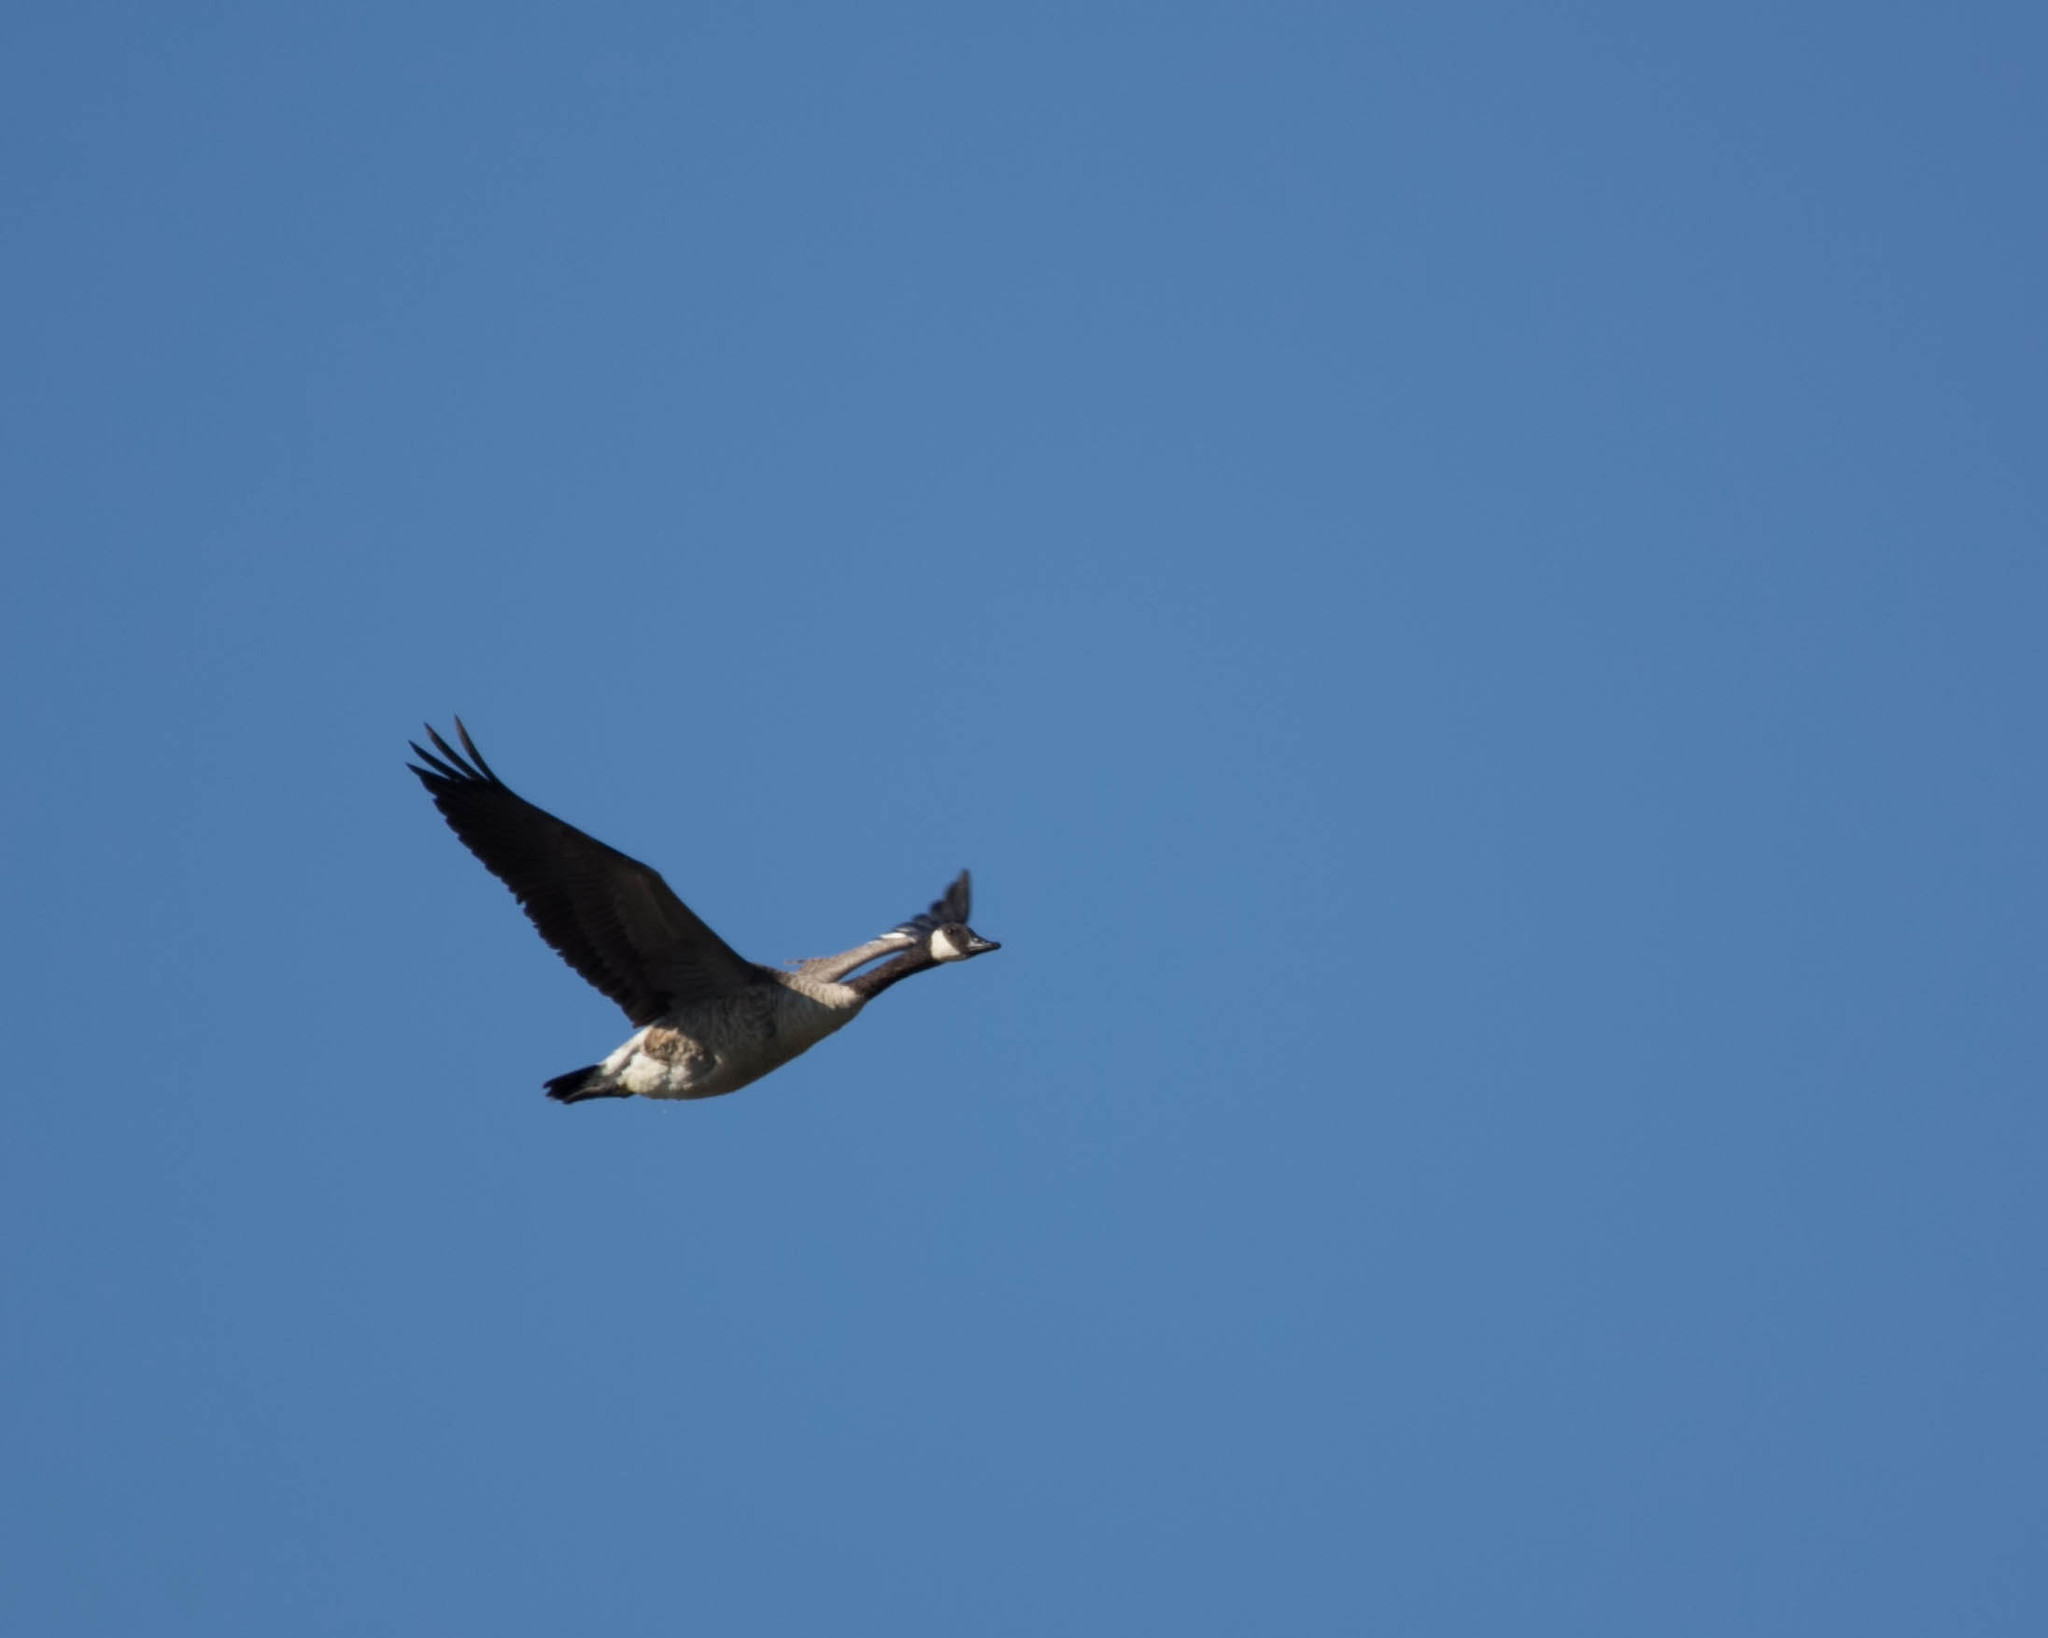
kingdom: Animalia
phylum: Chordata
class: Aves
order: Anseriformes
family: Anatidae
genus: Branta
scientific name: Branta canadensis
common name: Canada goose
